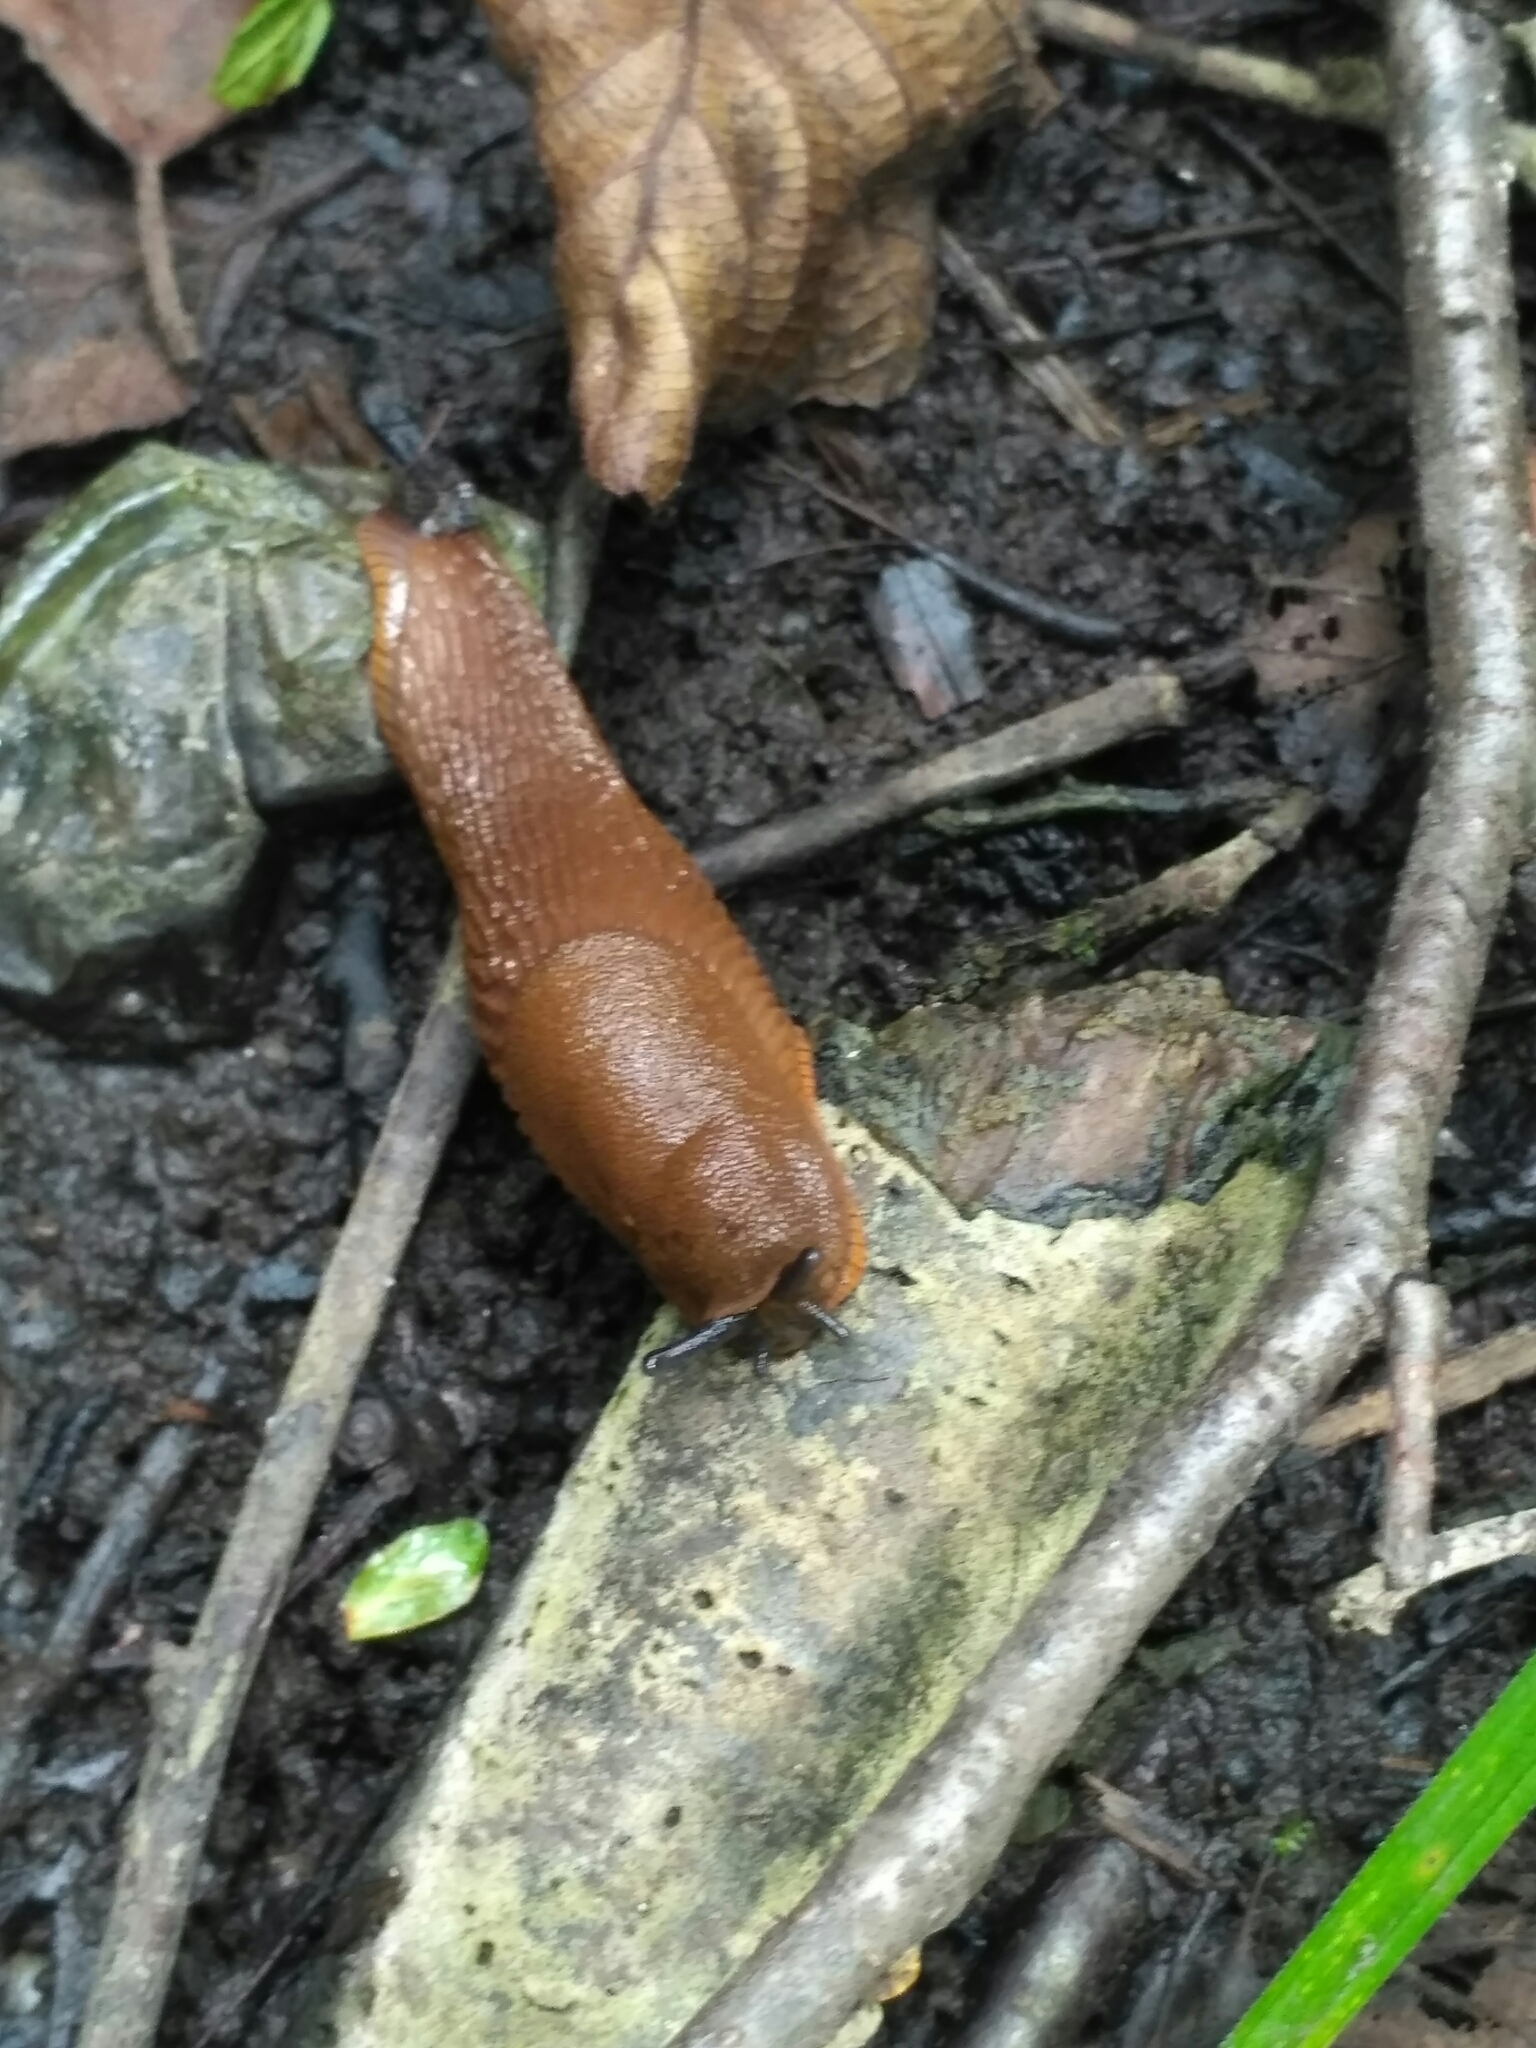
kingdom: Animalia
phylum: Mollusca
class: Gastropoda
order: Stylommatophora
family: Arionidae
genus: Arion
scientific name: Arion vulgaris
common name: Lusitanian slug
